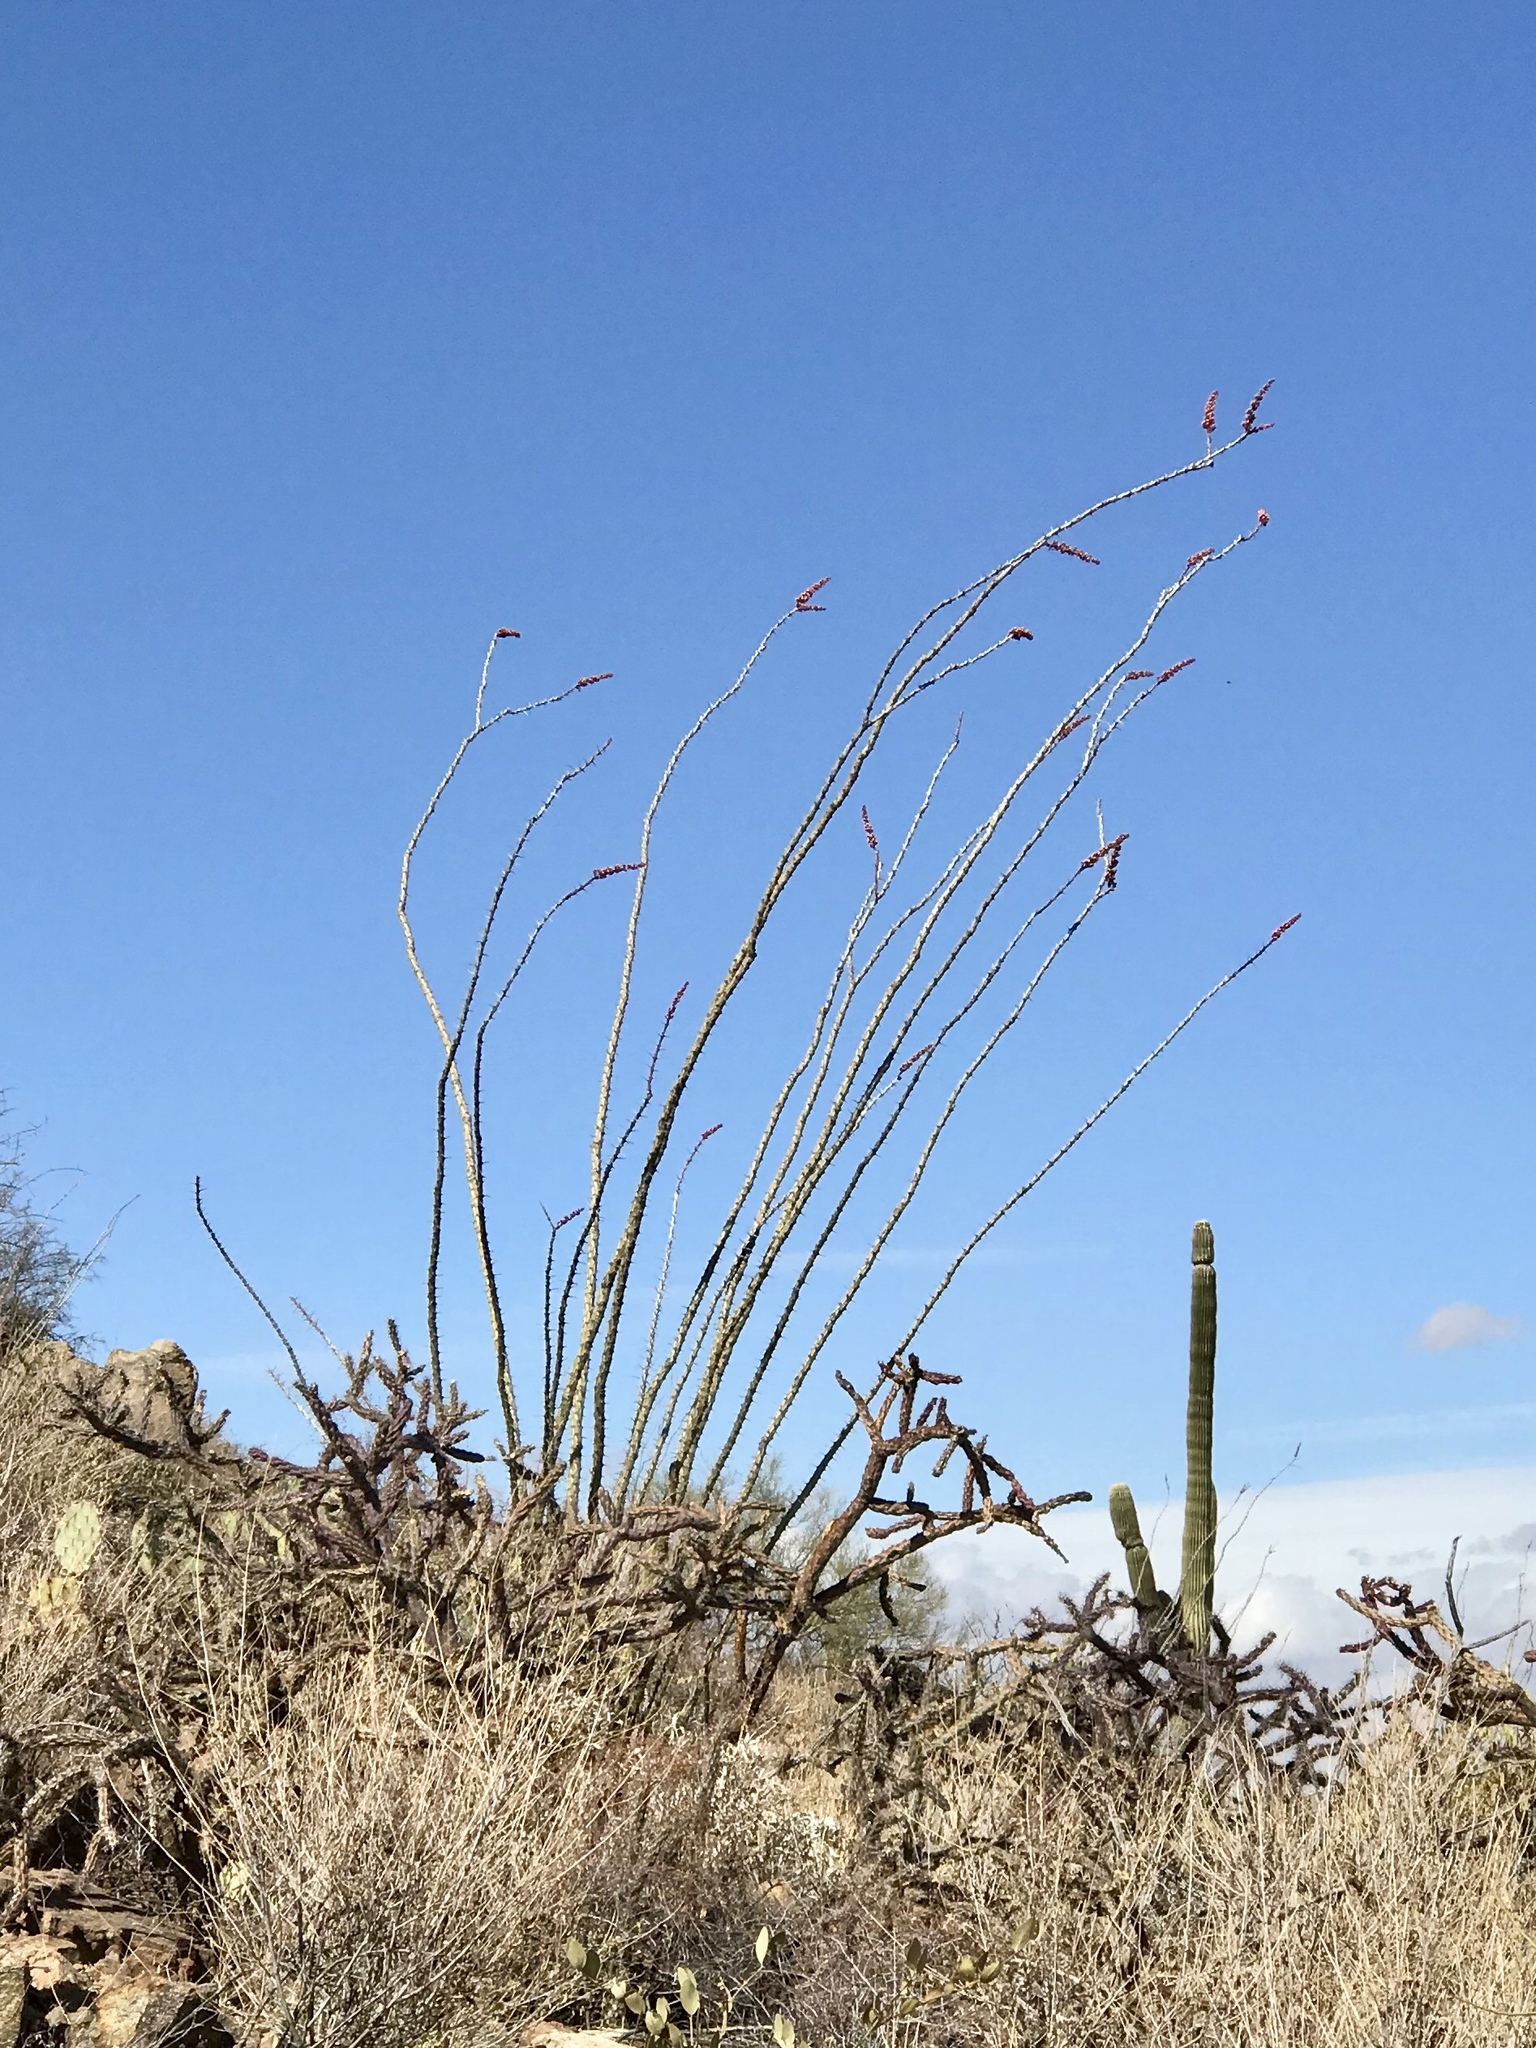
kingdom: Plantae
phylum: Tracheophyta
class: Magnoliopsida
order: Ericales
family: Fouquieriaceae
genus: Fouquieria
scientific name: Fouquieria splendens
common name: Vine-cactus
